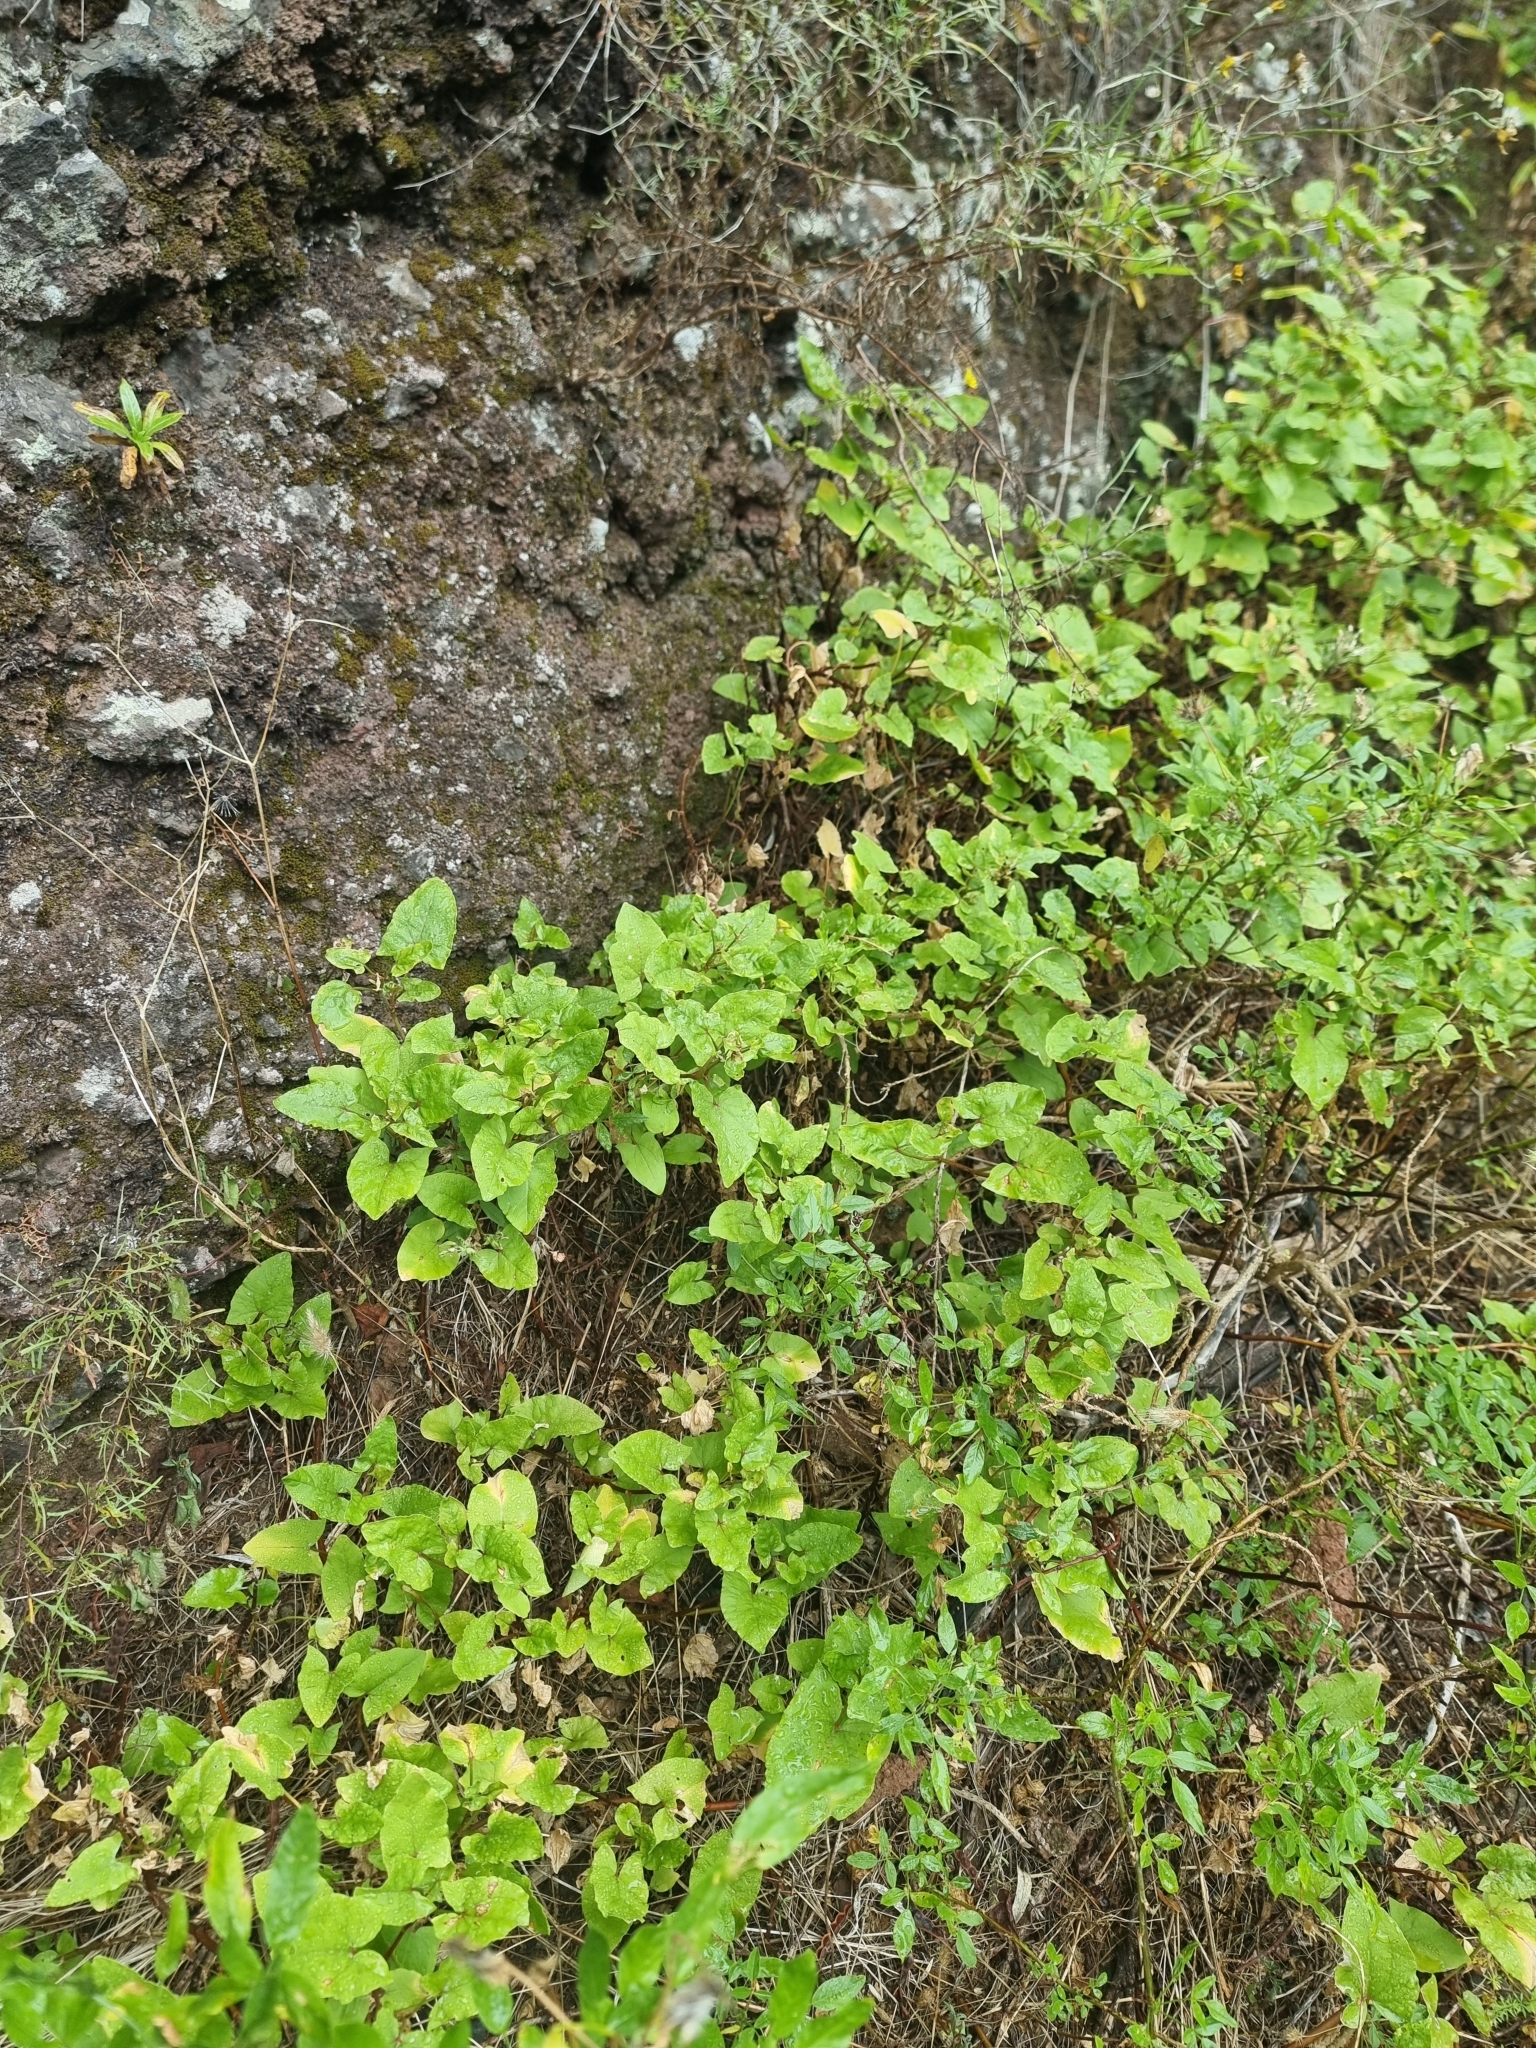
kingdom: Plantae
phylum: Tracheophyta
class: Magnoliopsida
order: Caryophyllales
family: Polygonaceae
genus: Rumex
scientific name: Rumex maderensis
